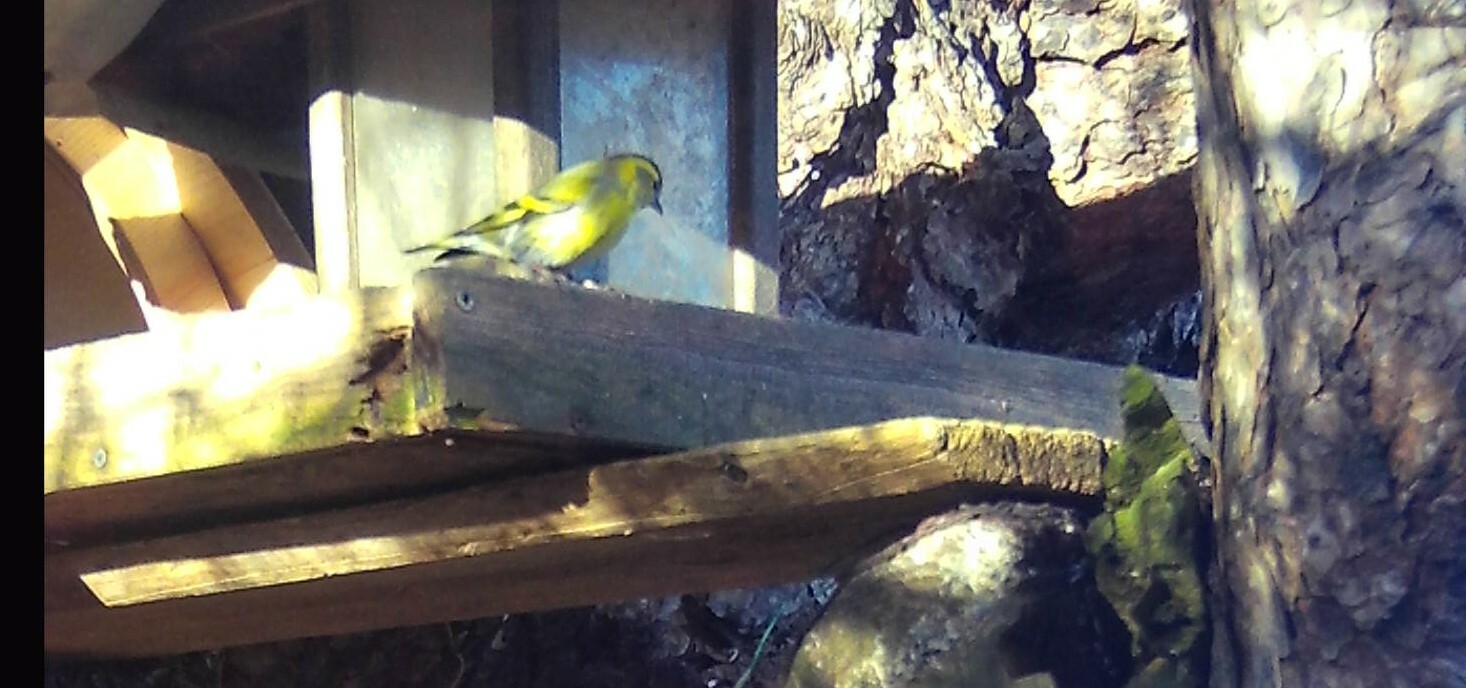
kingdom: Animalia
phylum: Chordata
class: Aves
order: Passeriformes
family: Fringillidae
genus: Spinus
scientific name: Spinus spinus
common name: Eurasian siskin
